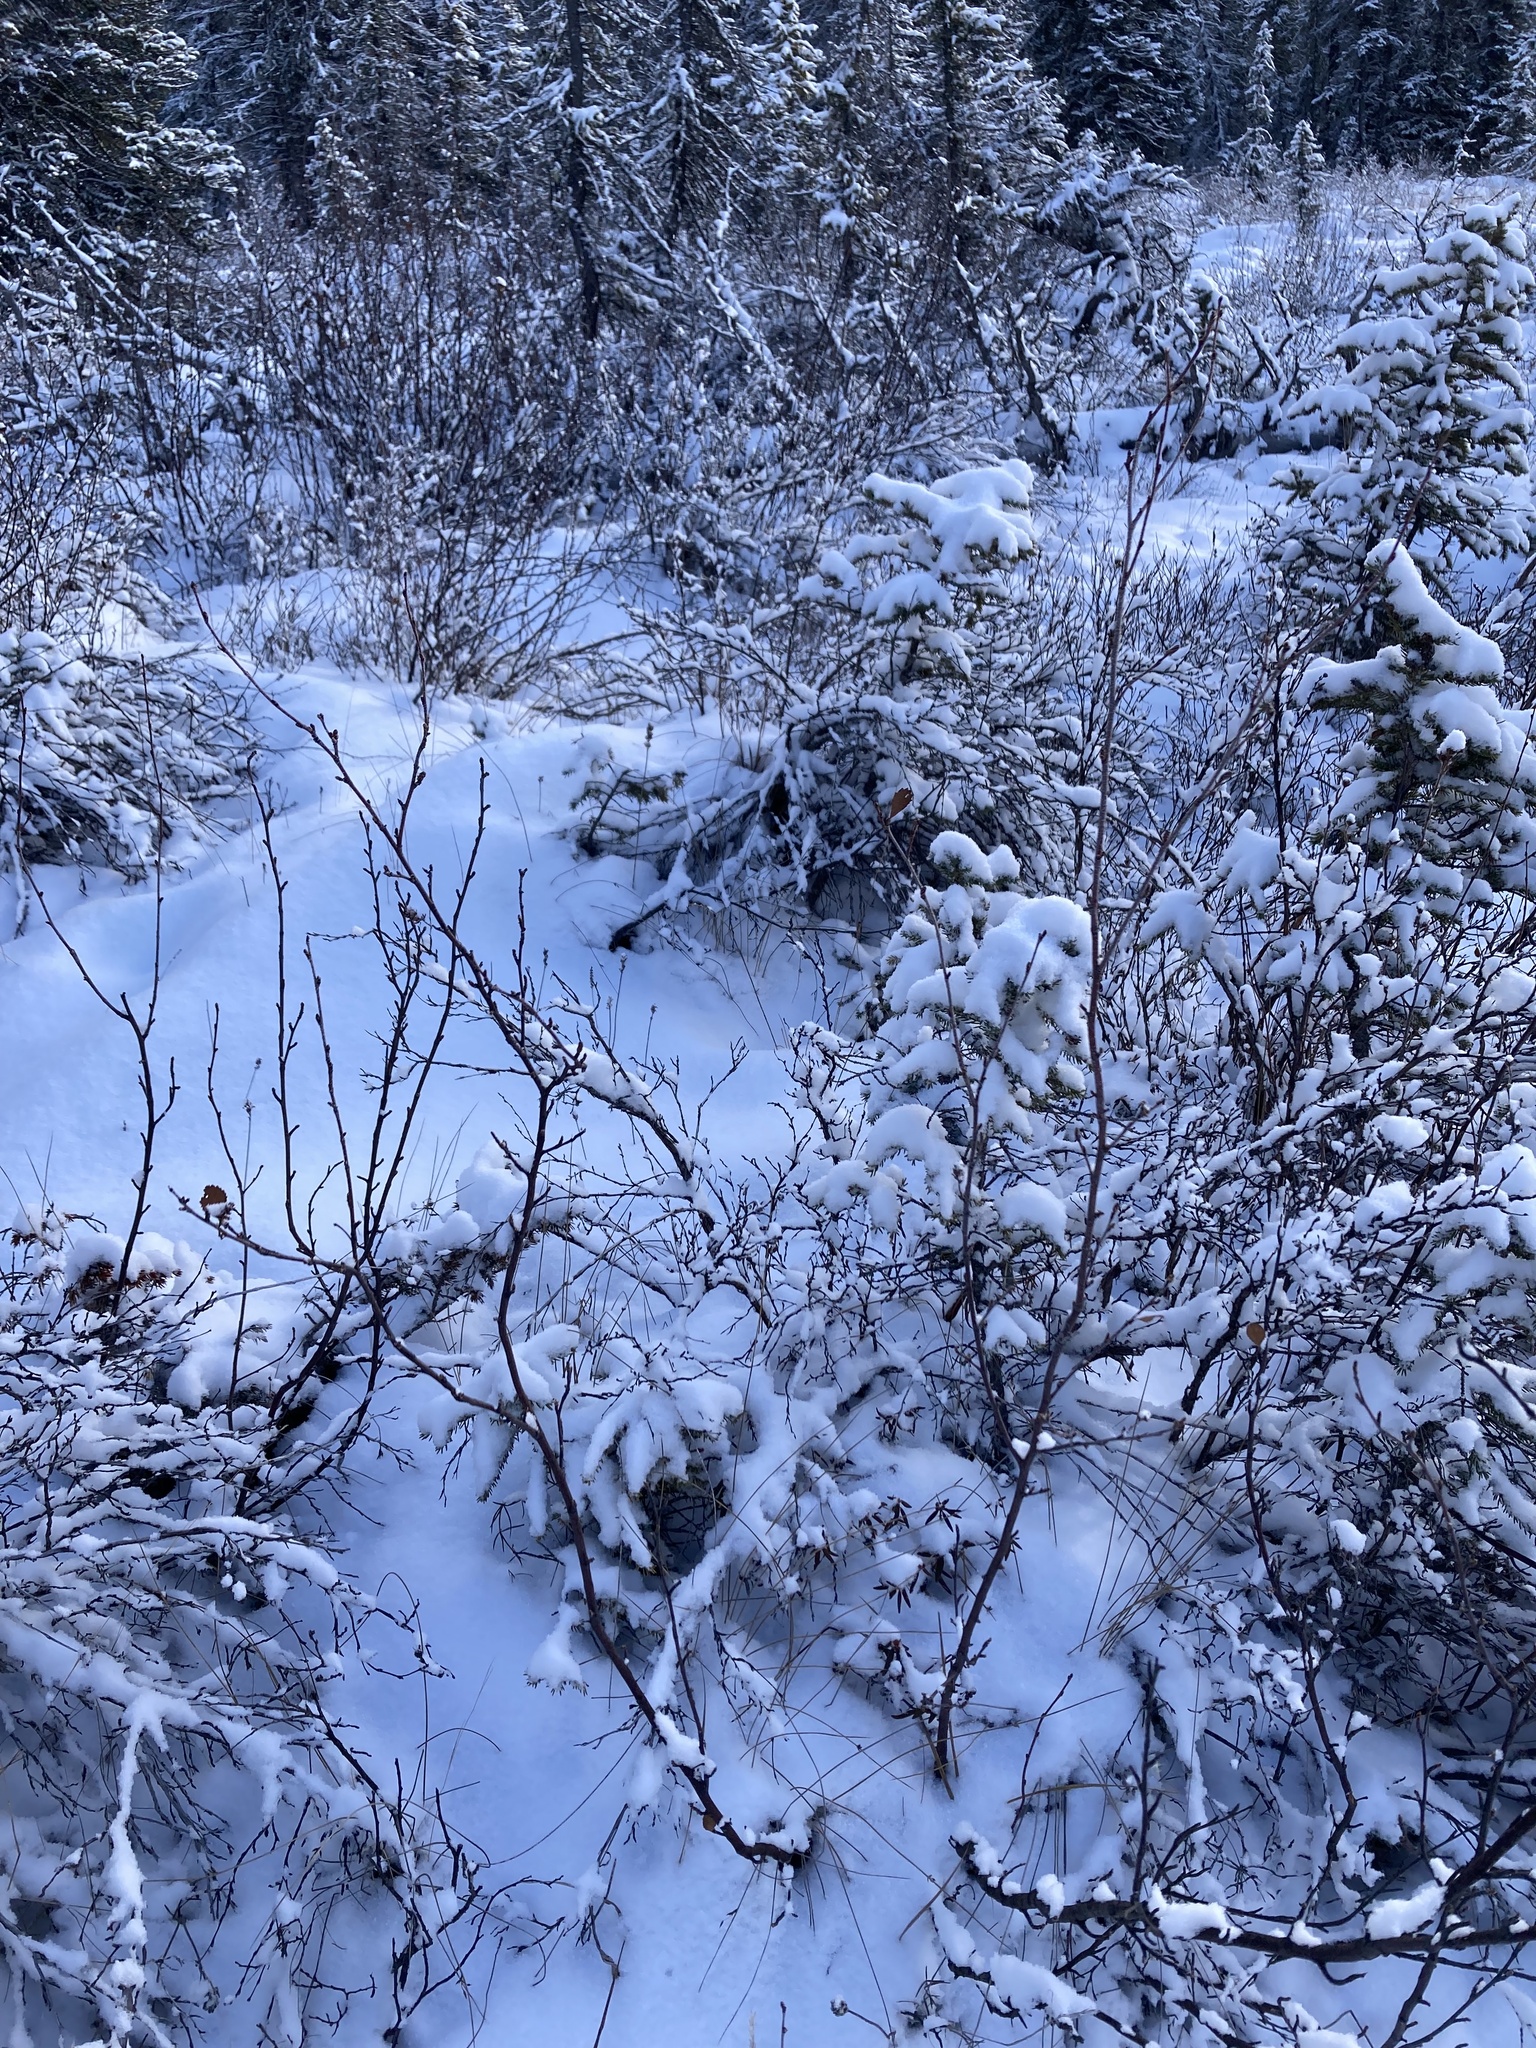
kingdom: Plantae
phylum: Tracheophyta
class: Magnoliopsida
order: Fagales
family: Betulaceae
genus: Betula
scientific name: Betula glandulosa
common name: Dwarf birch
